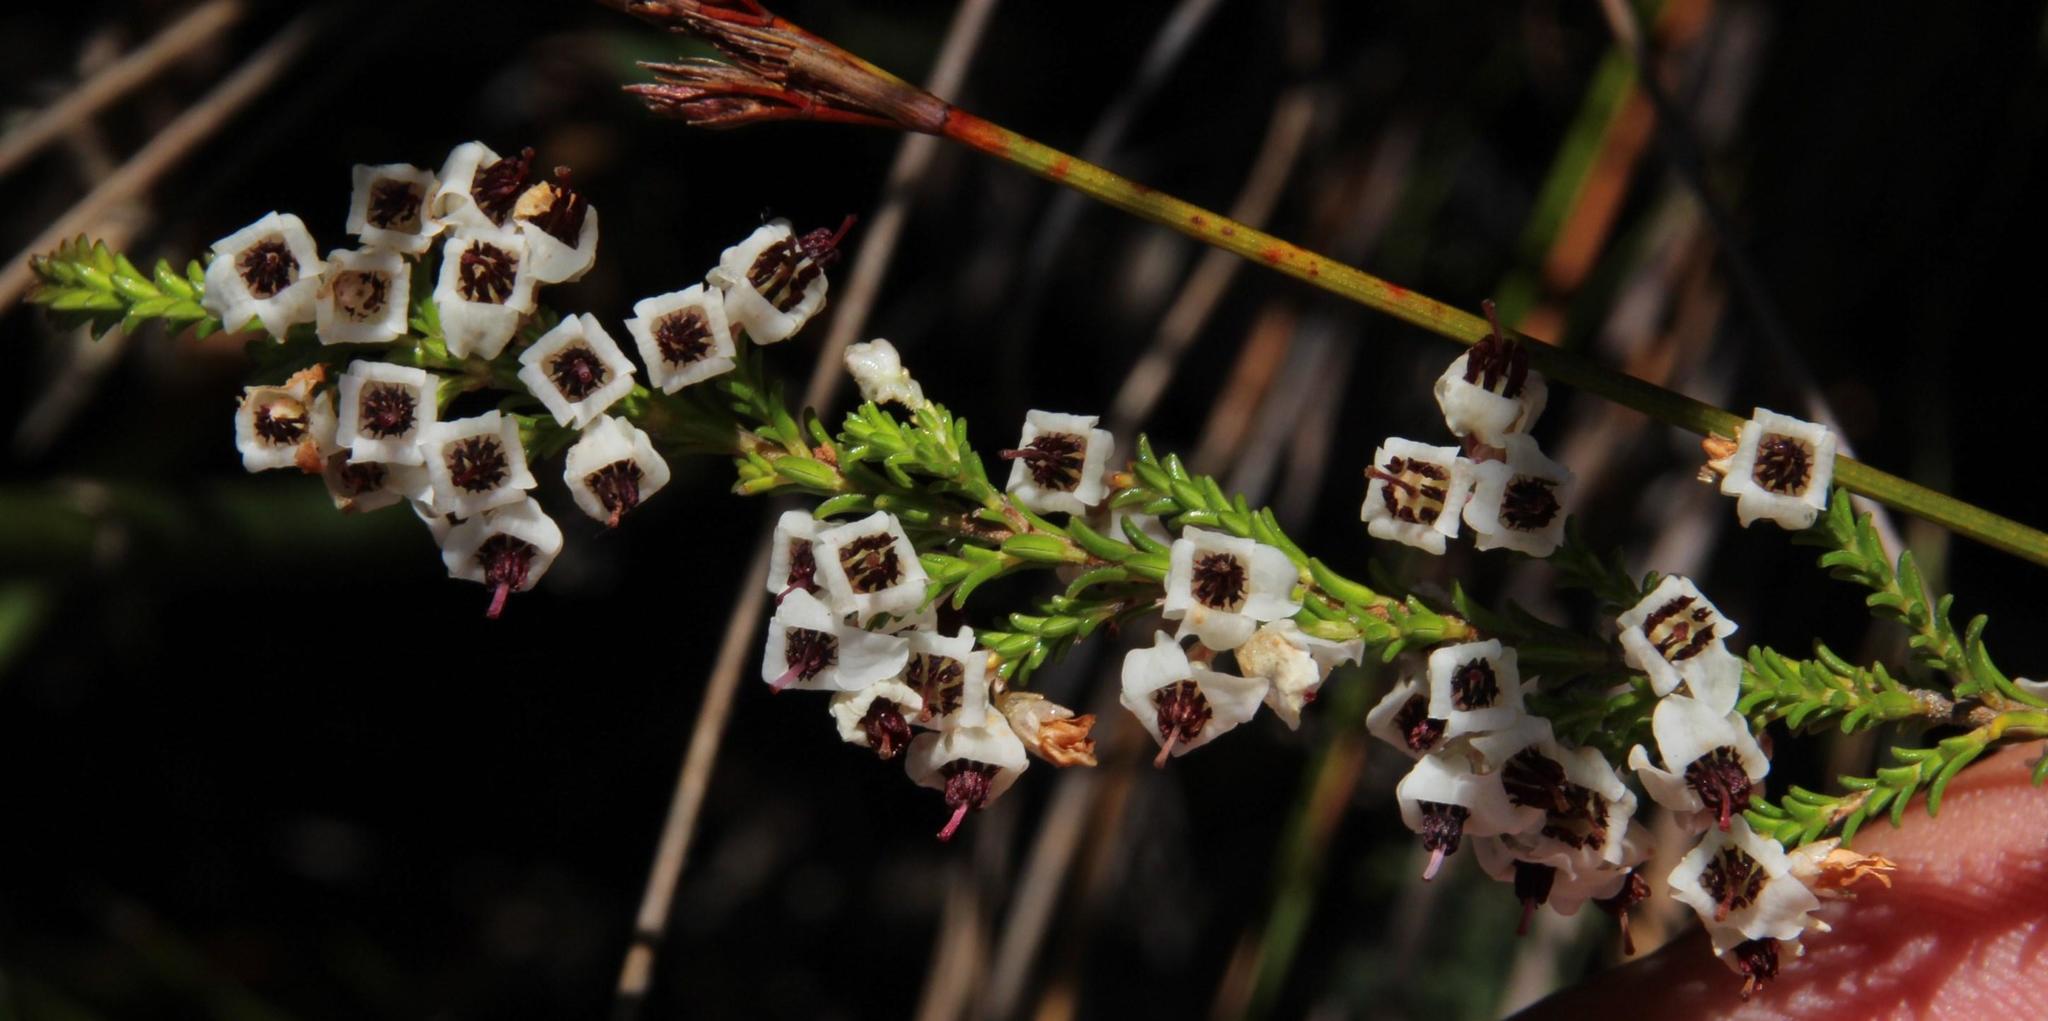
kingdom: Plantae
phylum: Tracheophyta
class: Magnoliopsida
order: Ericales
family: Ericaceae
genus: Erica
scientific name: Erica calycina
